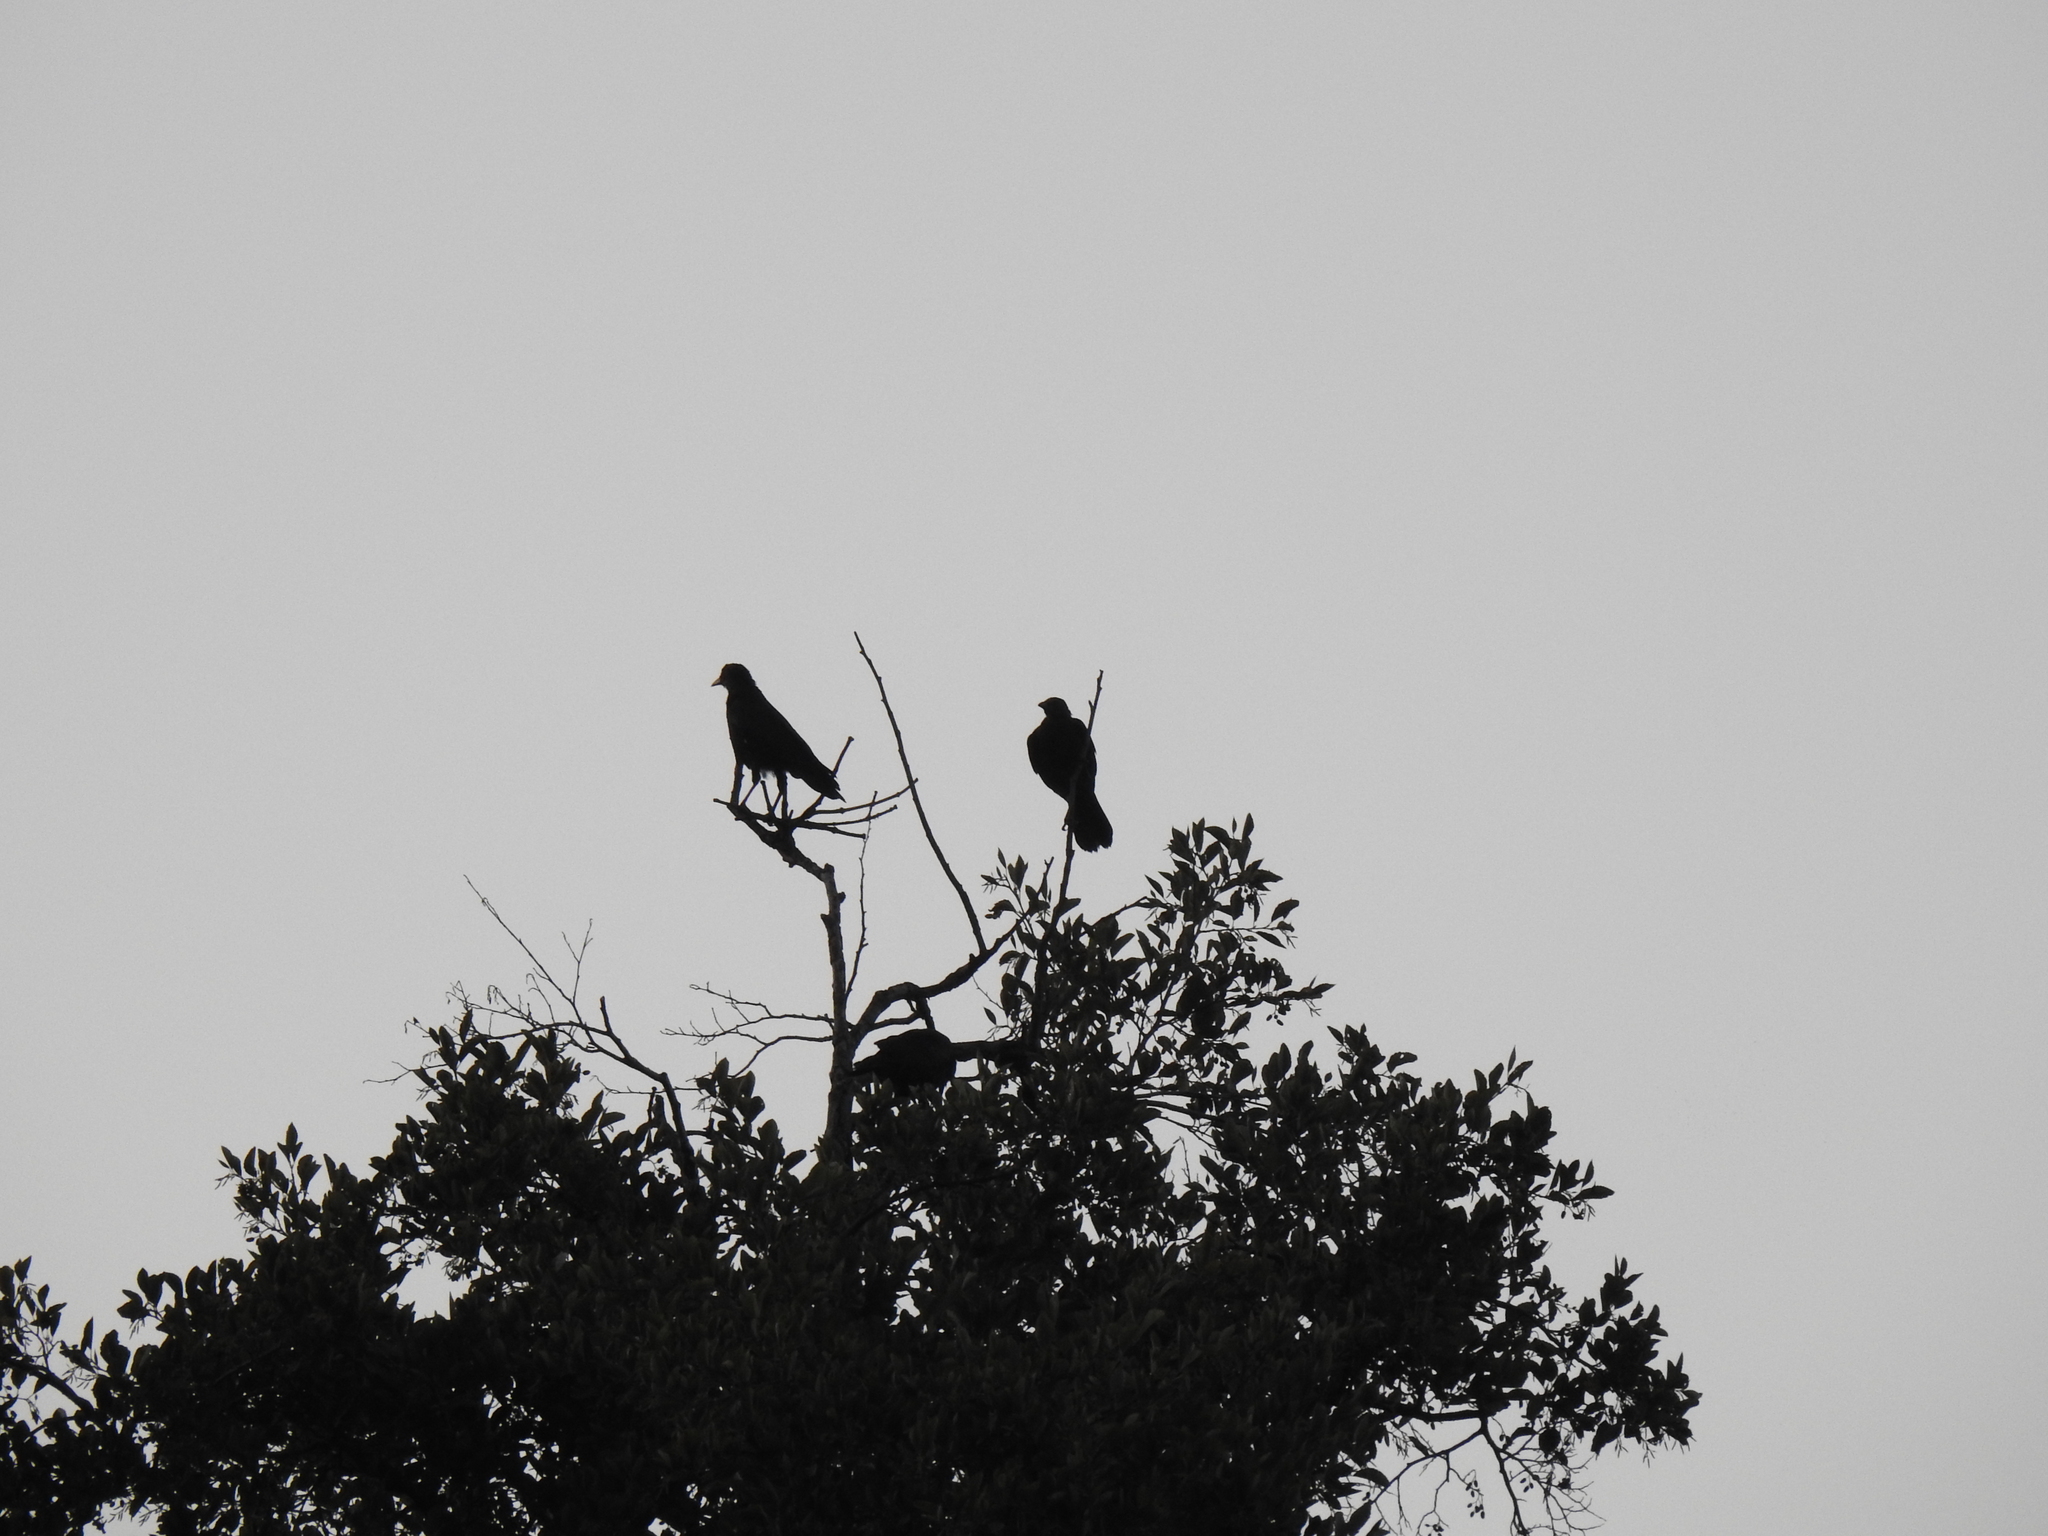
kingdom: Animalia
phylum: Chordata
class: Aves
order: Passeriformes
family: Corvidae
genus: Corvus
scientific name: Corvus brachyrhynchos
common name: American crow
